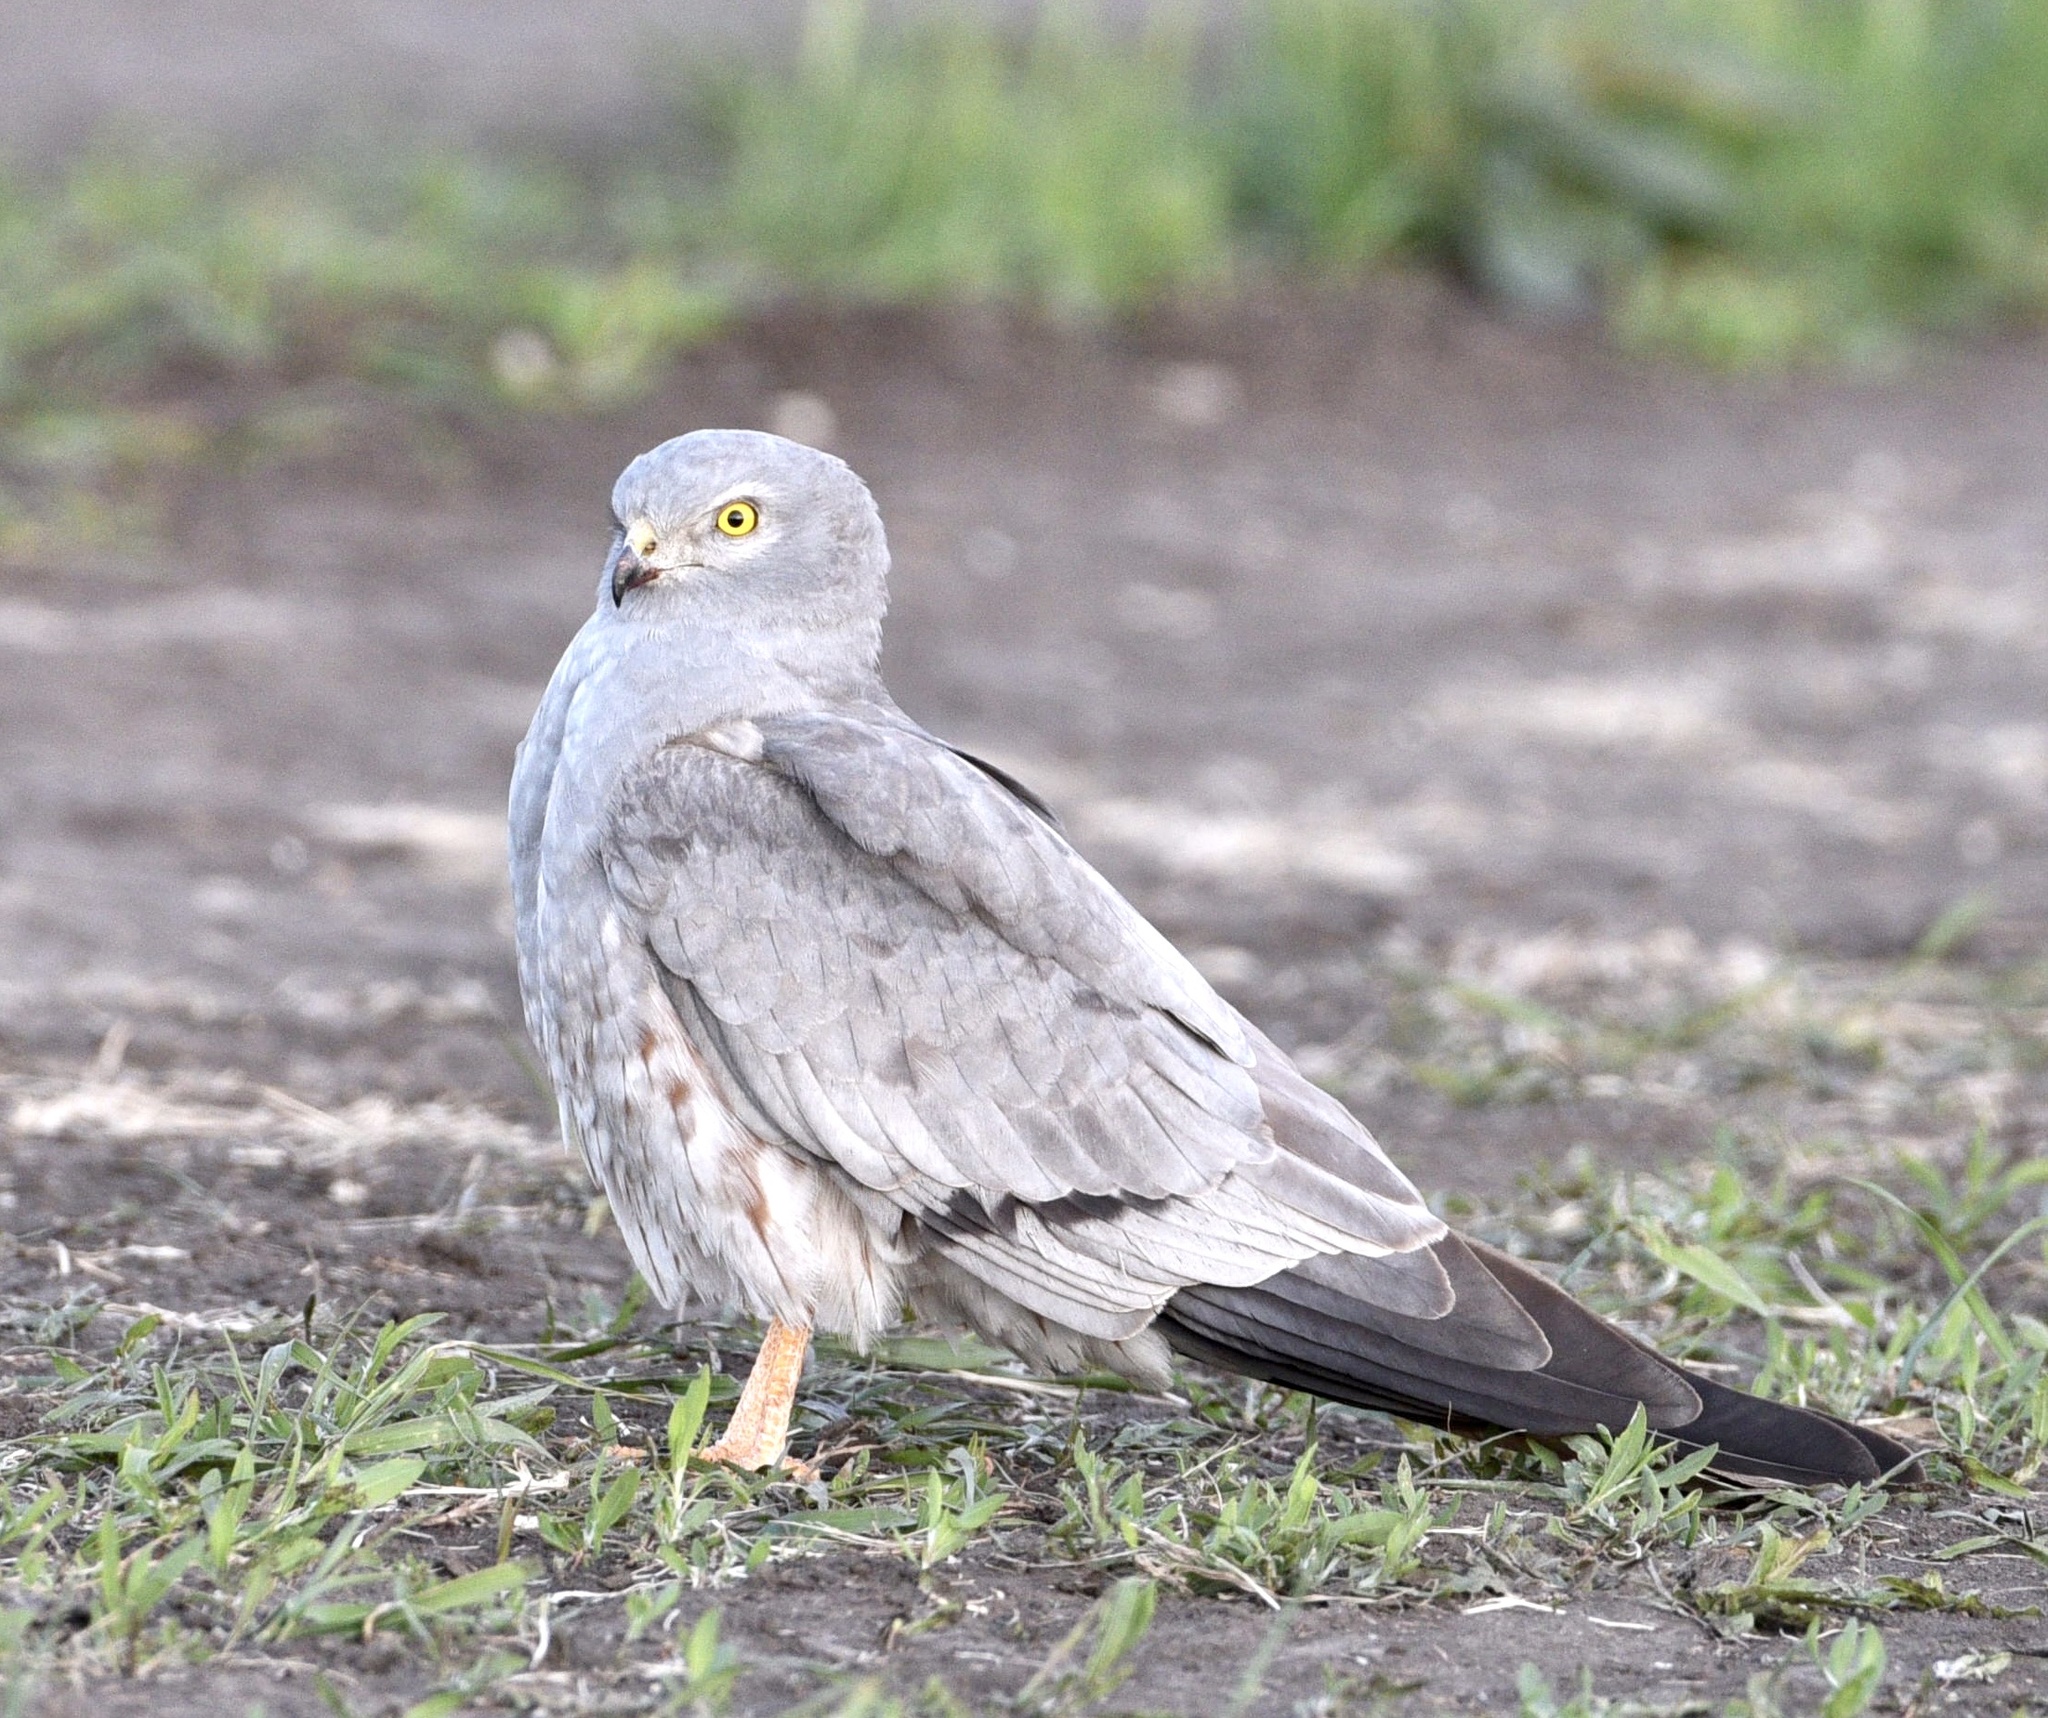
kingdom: Animalia
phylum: Chordata
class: Aves
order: Accipitriformes
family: Accipitridae
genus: Circus
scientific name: Circus pygargus
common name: Montagu's harrier
